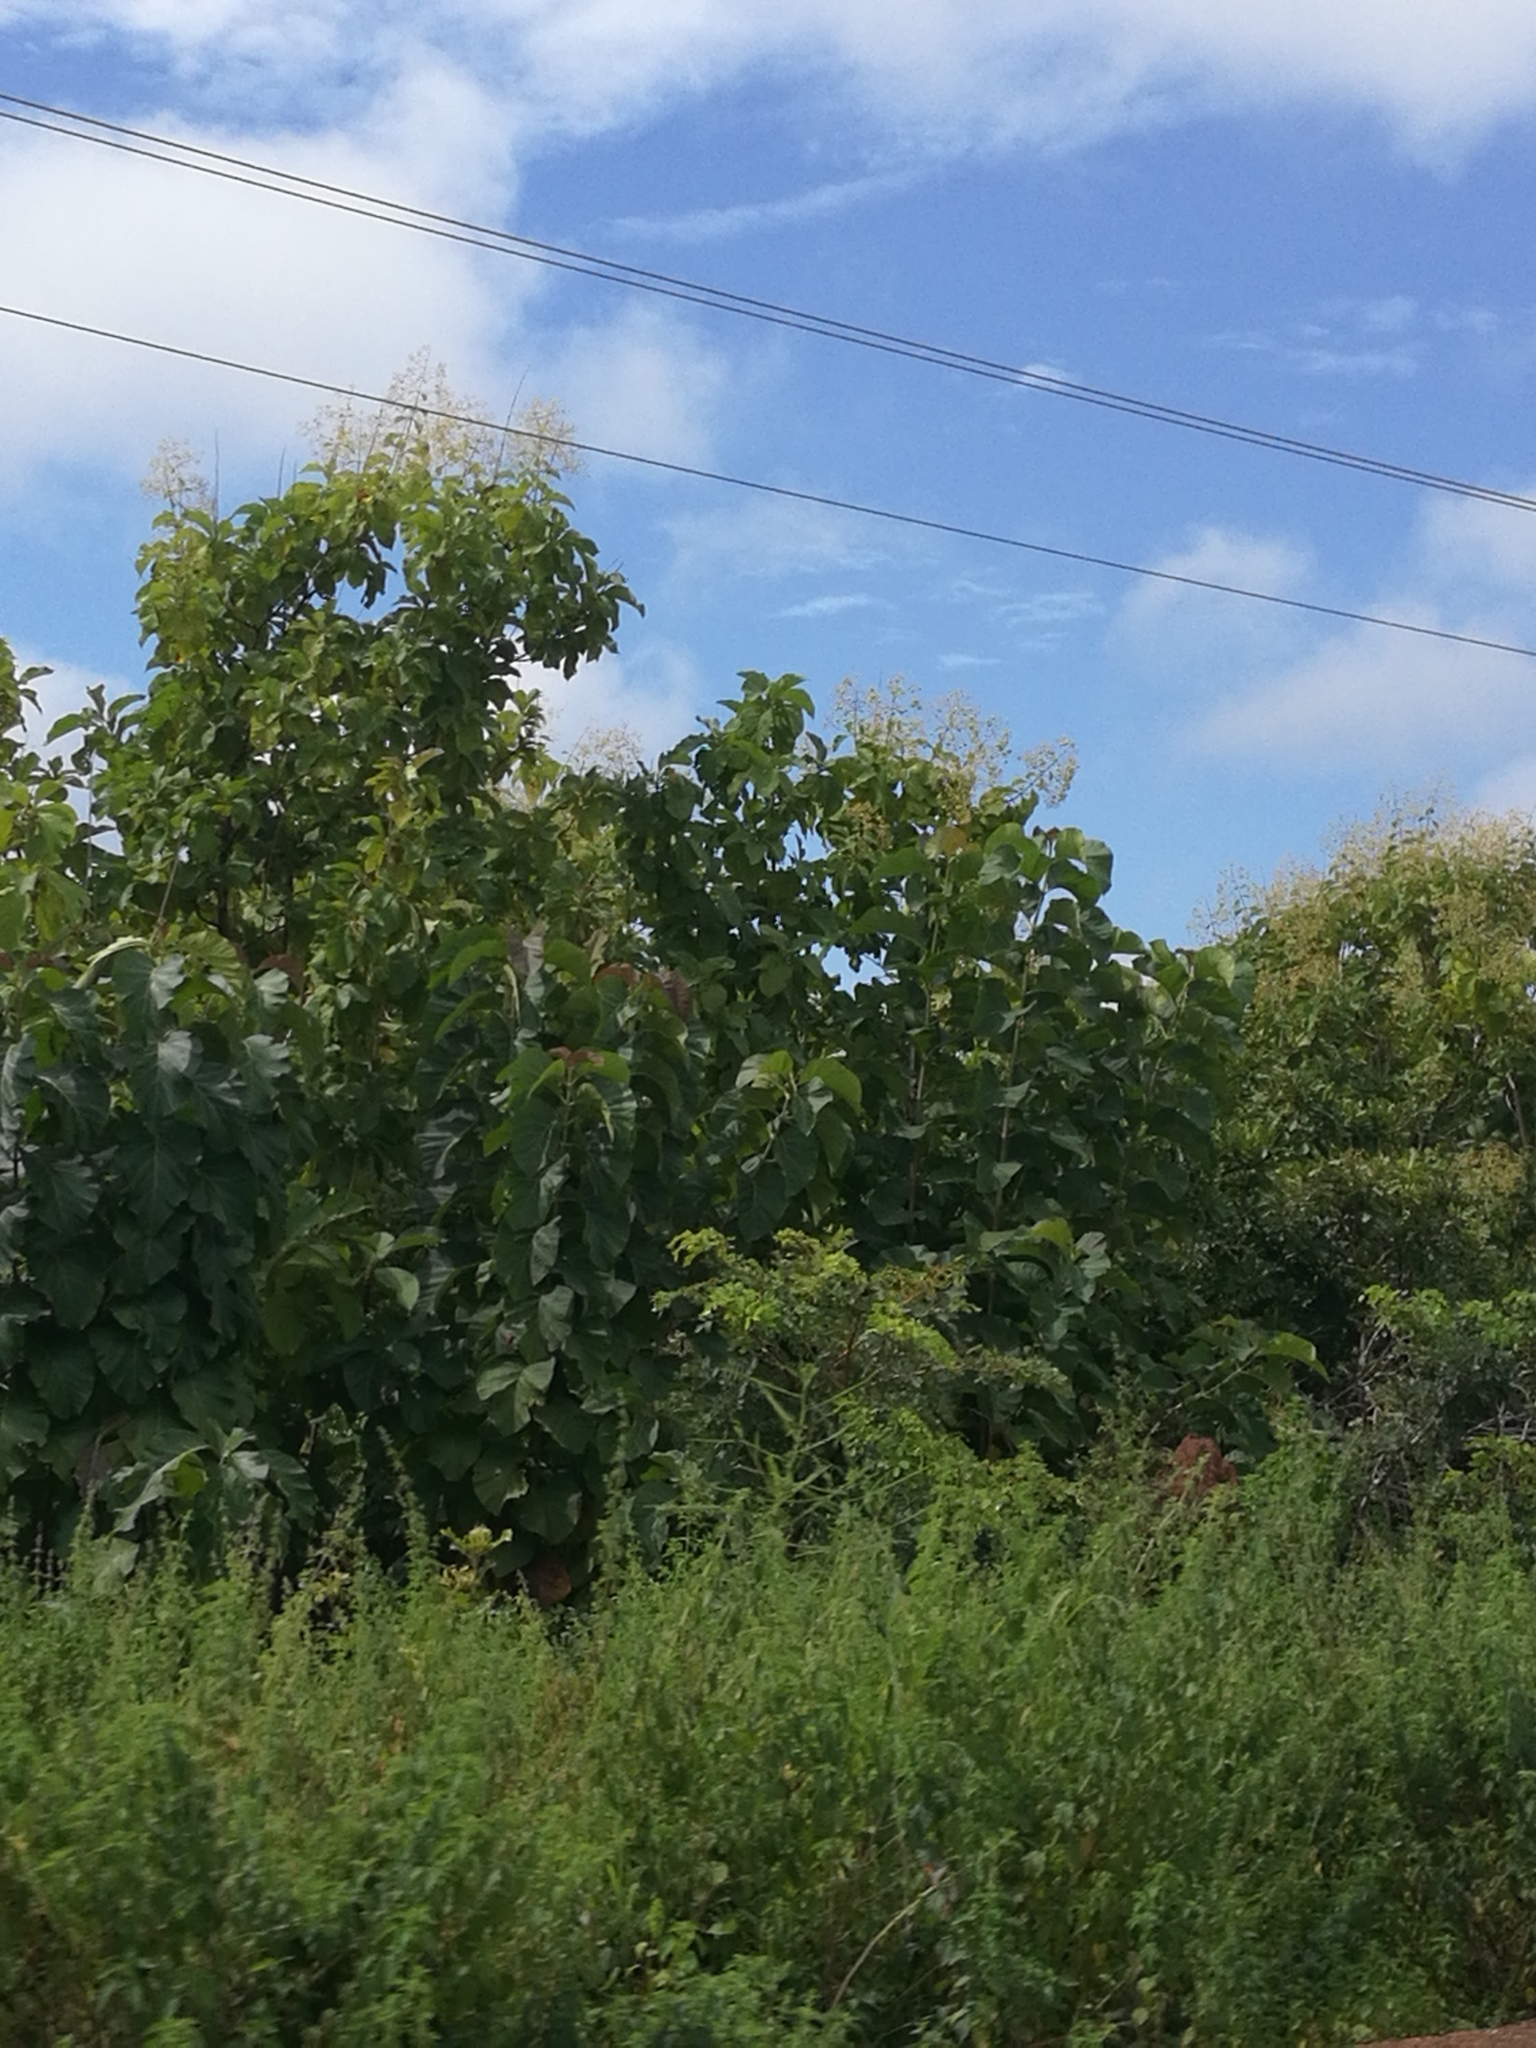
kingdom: Plantae
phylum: Tracheophyta
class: Magnoliopsida
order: Lamiales
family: Lamiaceae
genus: Tectona
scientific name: Tectona grandis
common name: Teak
